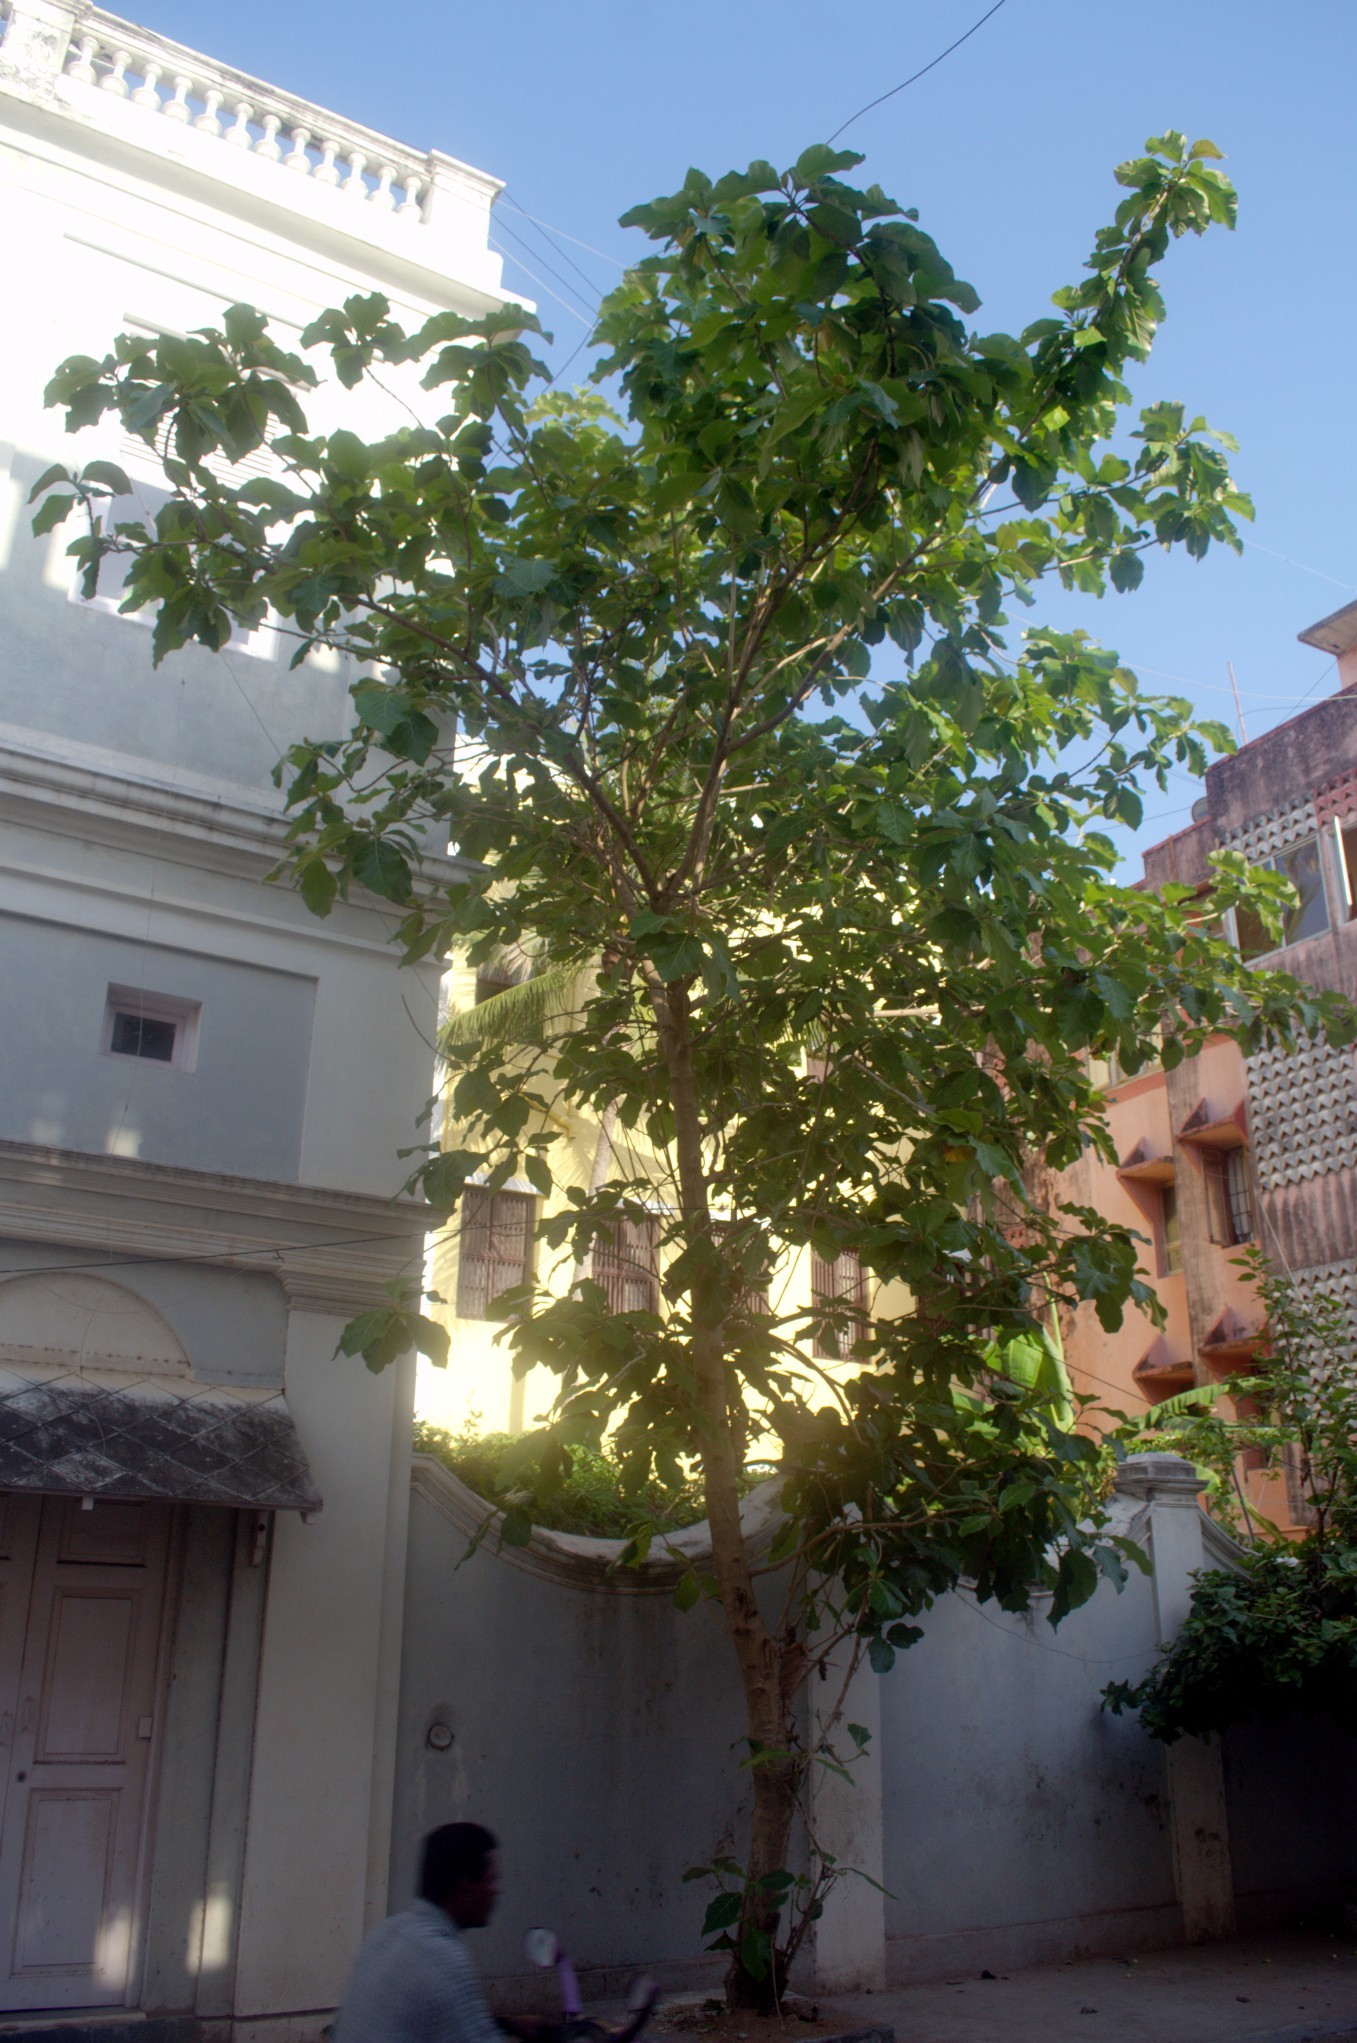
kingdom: Plantae
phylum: Tracheophyta
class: Magnoliopsida
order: Lamiales
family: Lamiaceae
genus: Tectona
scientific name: Tectona grandis
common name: Teak
